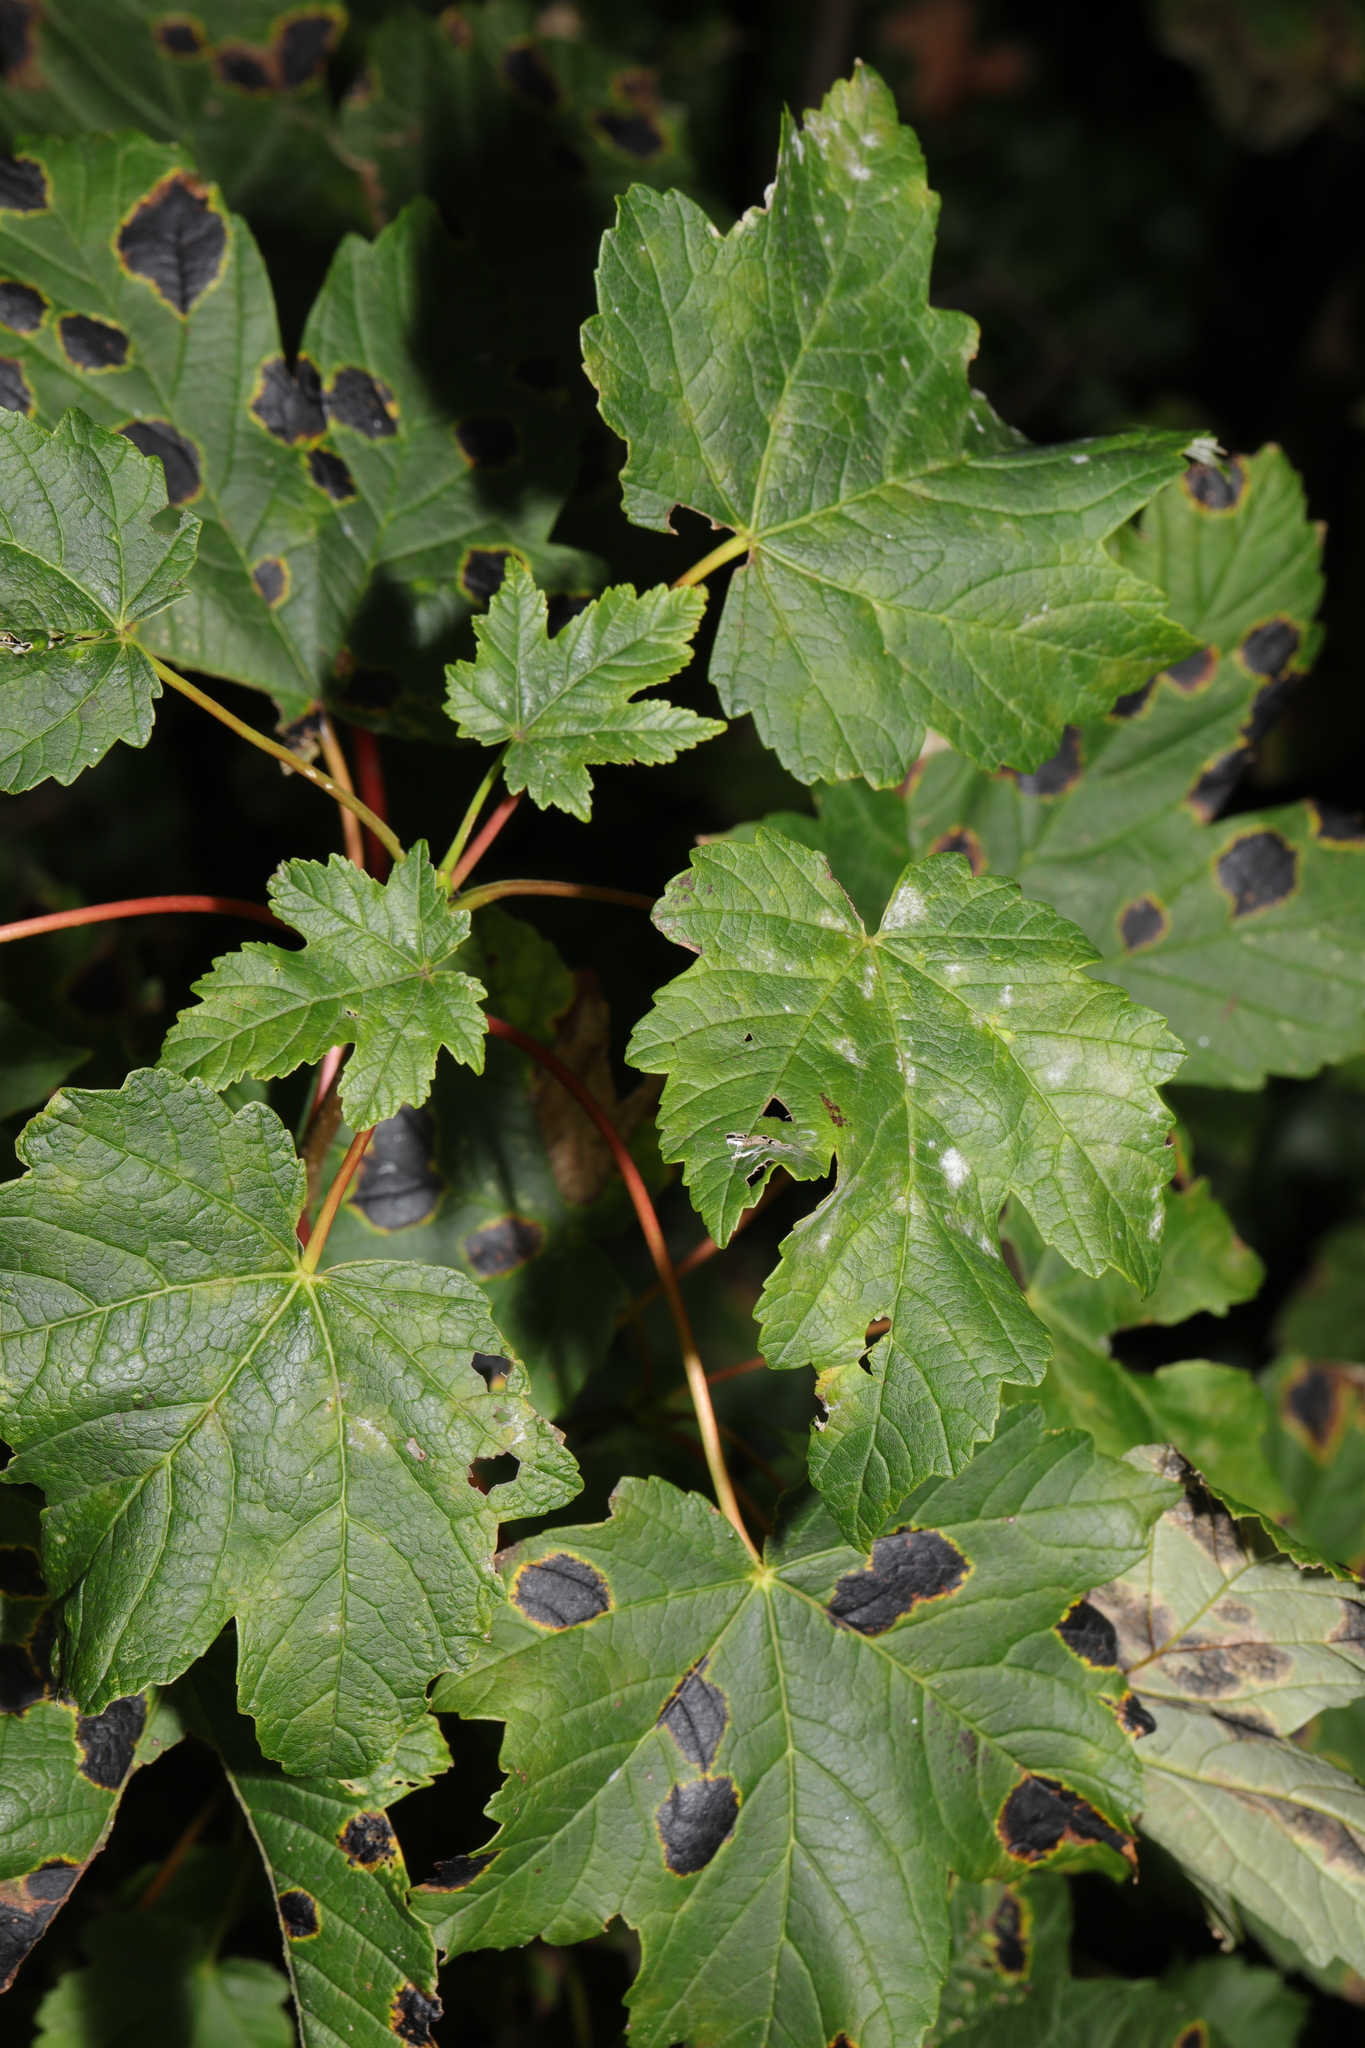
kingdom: Plantae
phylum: Tracheophyta
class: Magnoliopsida
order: Sapindales
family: Sapindaceae
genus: Acer
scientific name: Acer pseudoplatanus
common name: Sycamore
